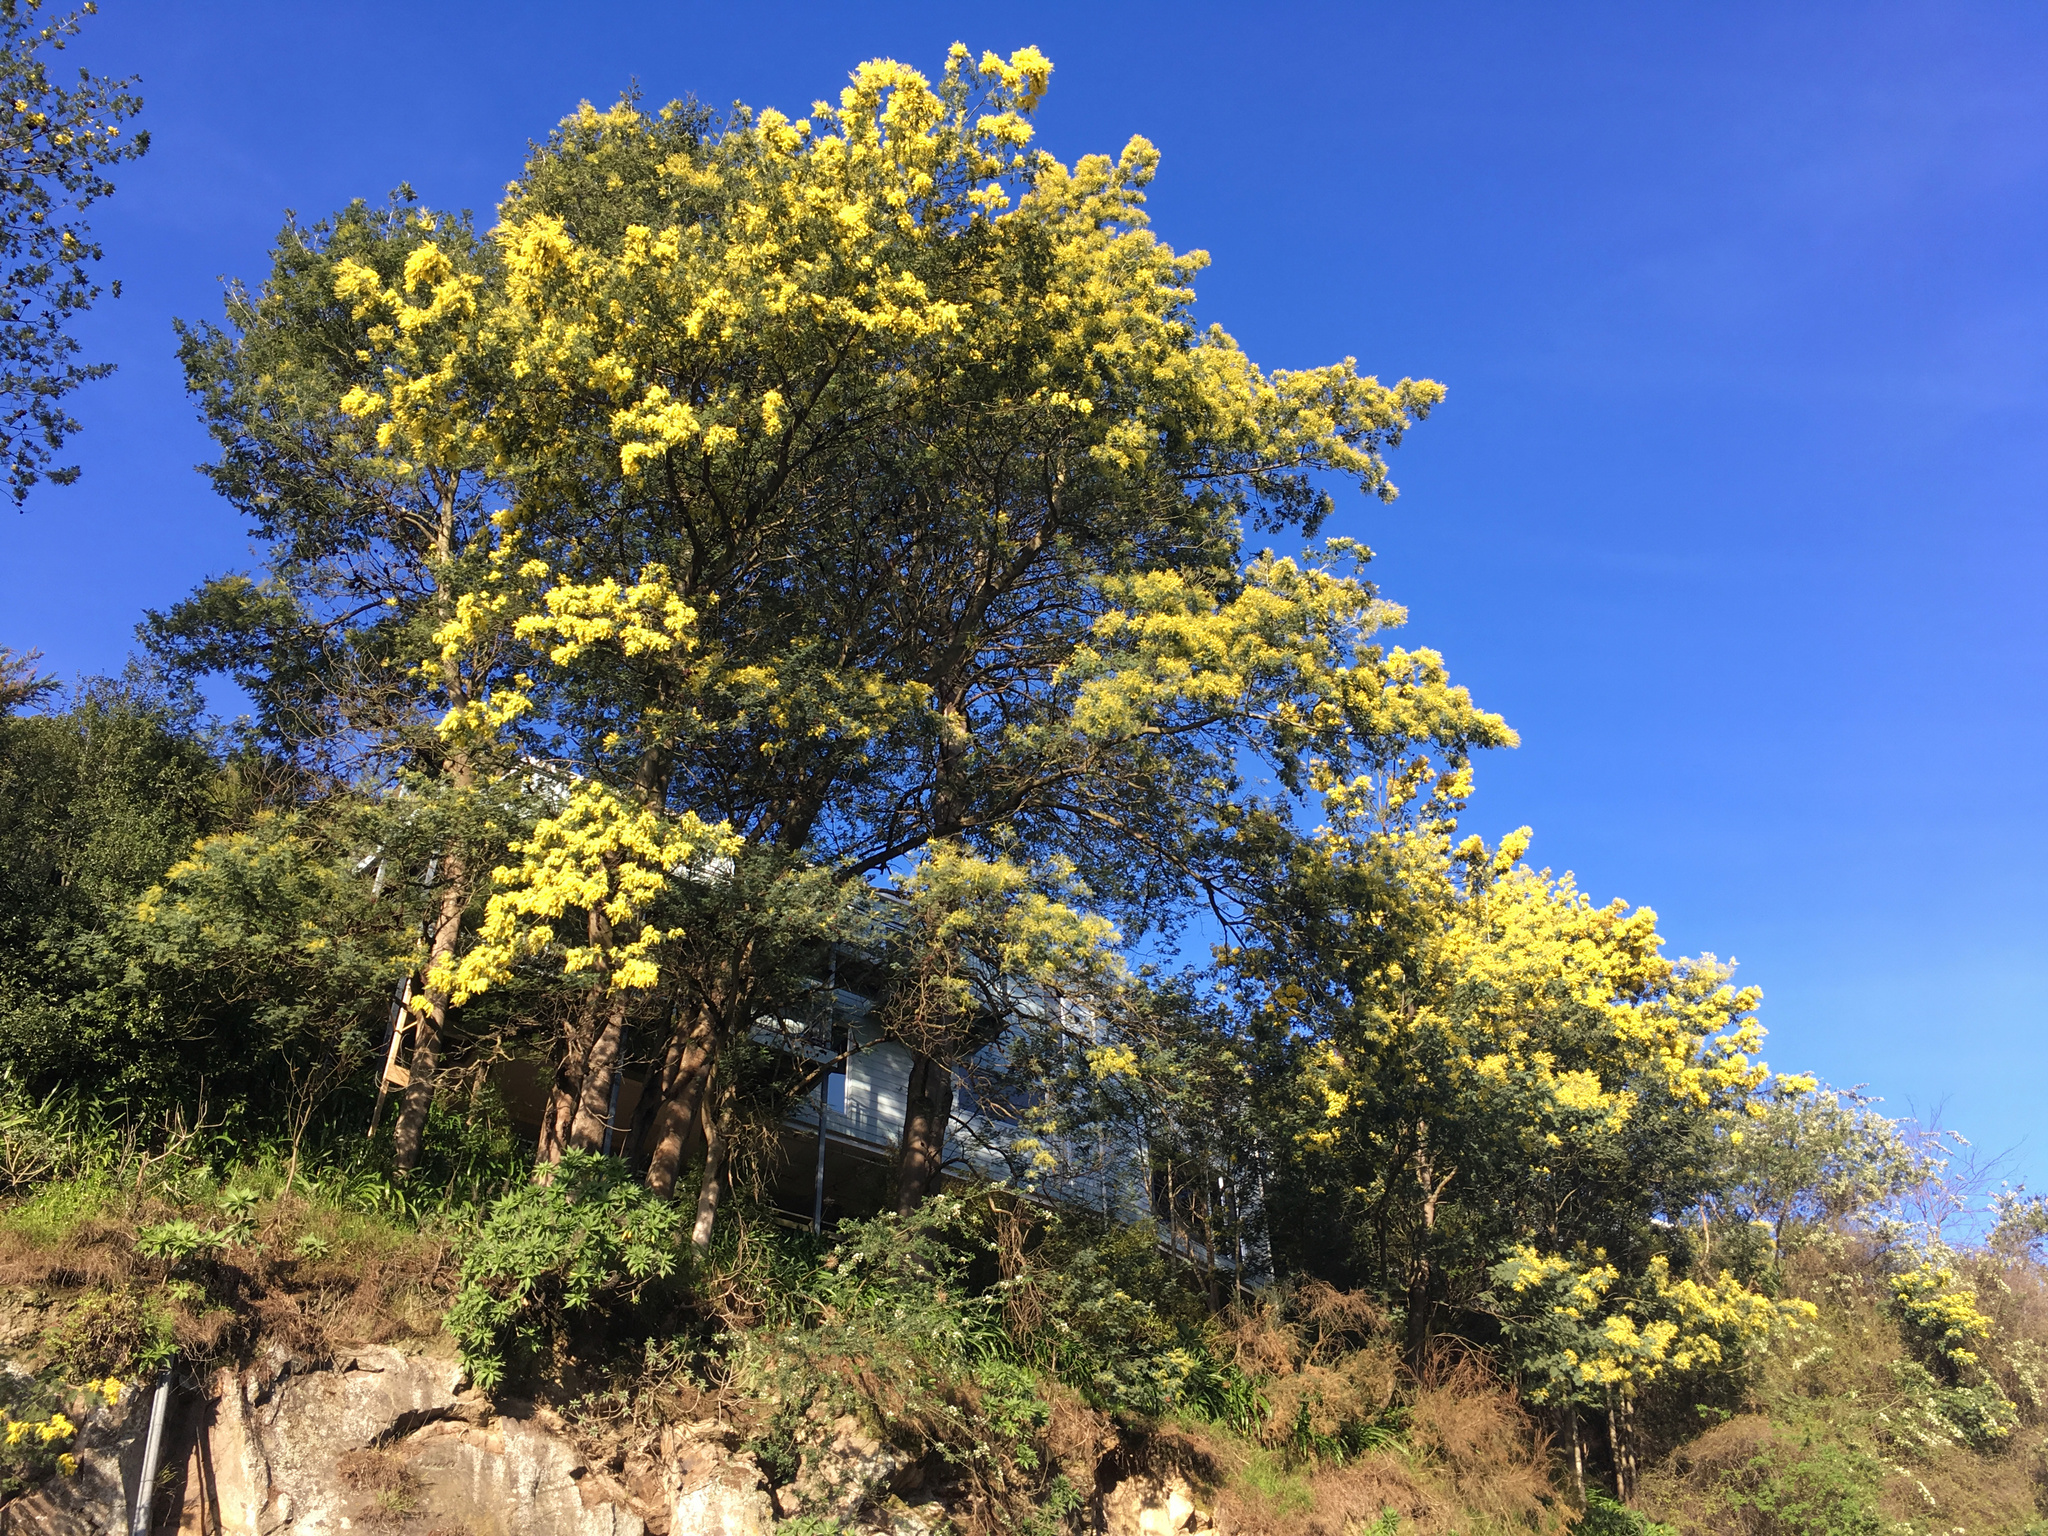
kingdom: Plantae
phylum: Tracheophyta
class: Magnoliopsida
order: Fabales
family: Fabaceae
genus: Acacia
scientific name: Acacia dealbata
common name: Silver wattle
